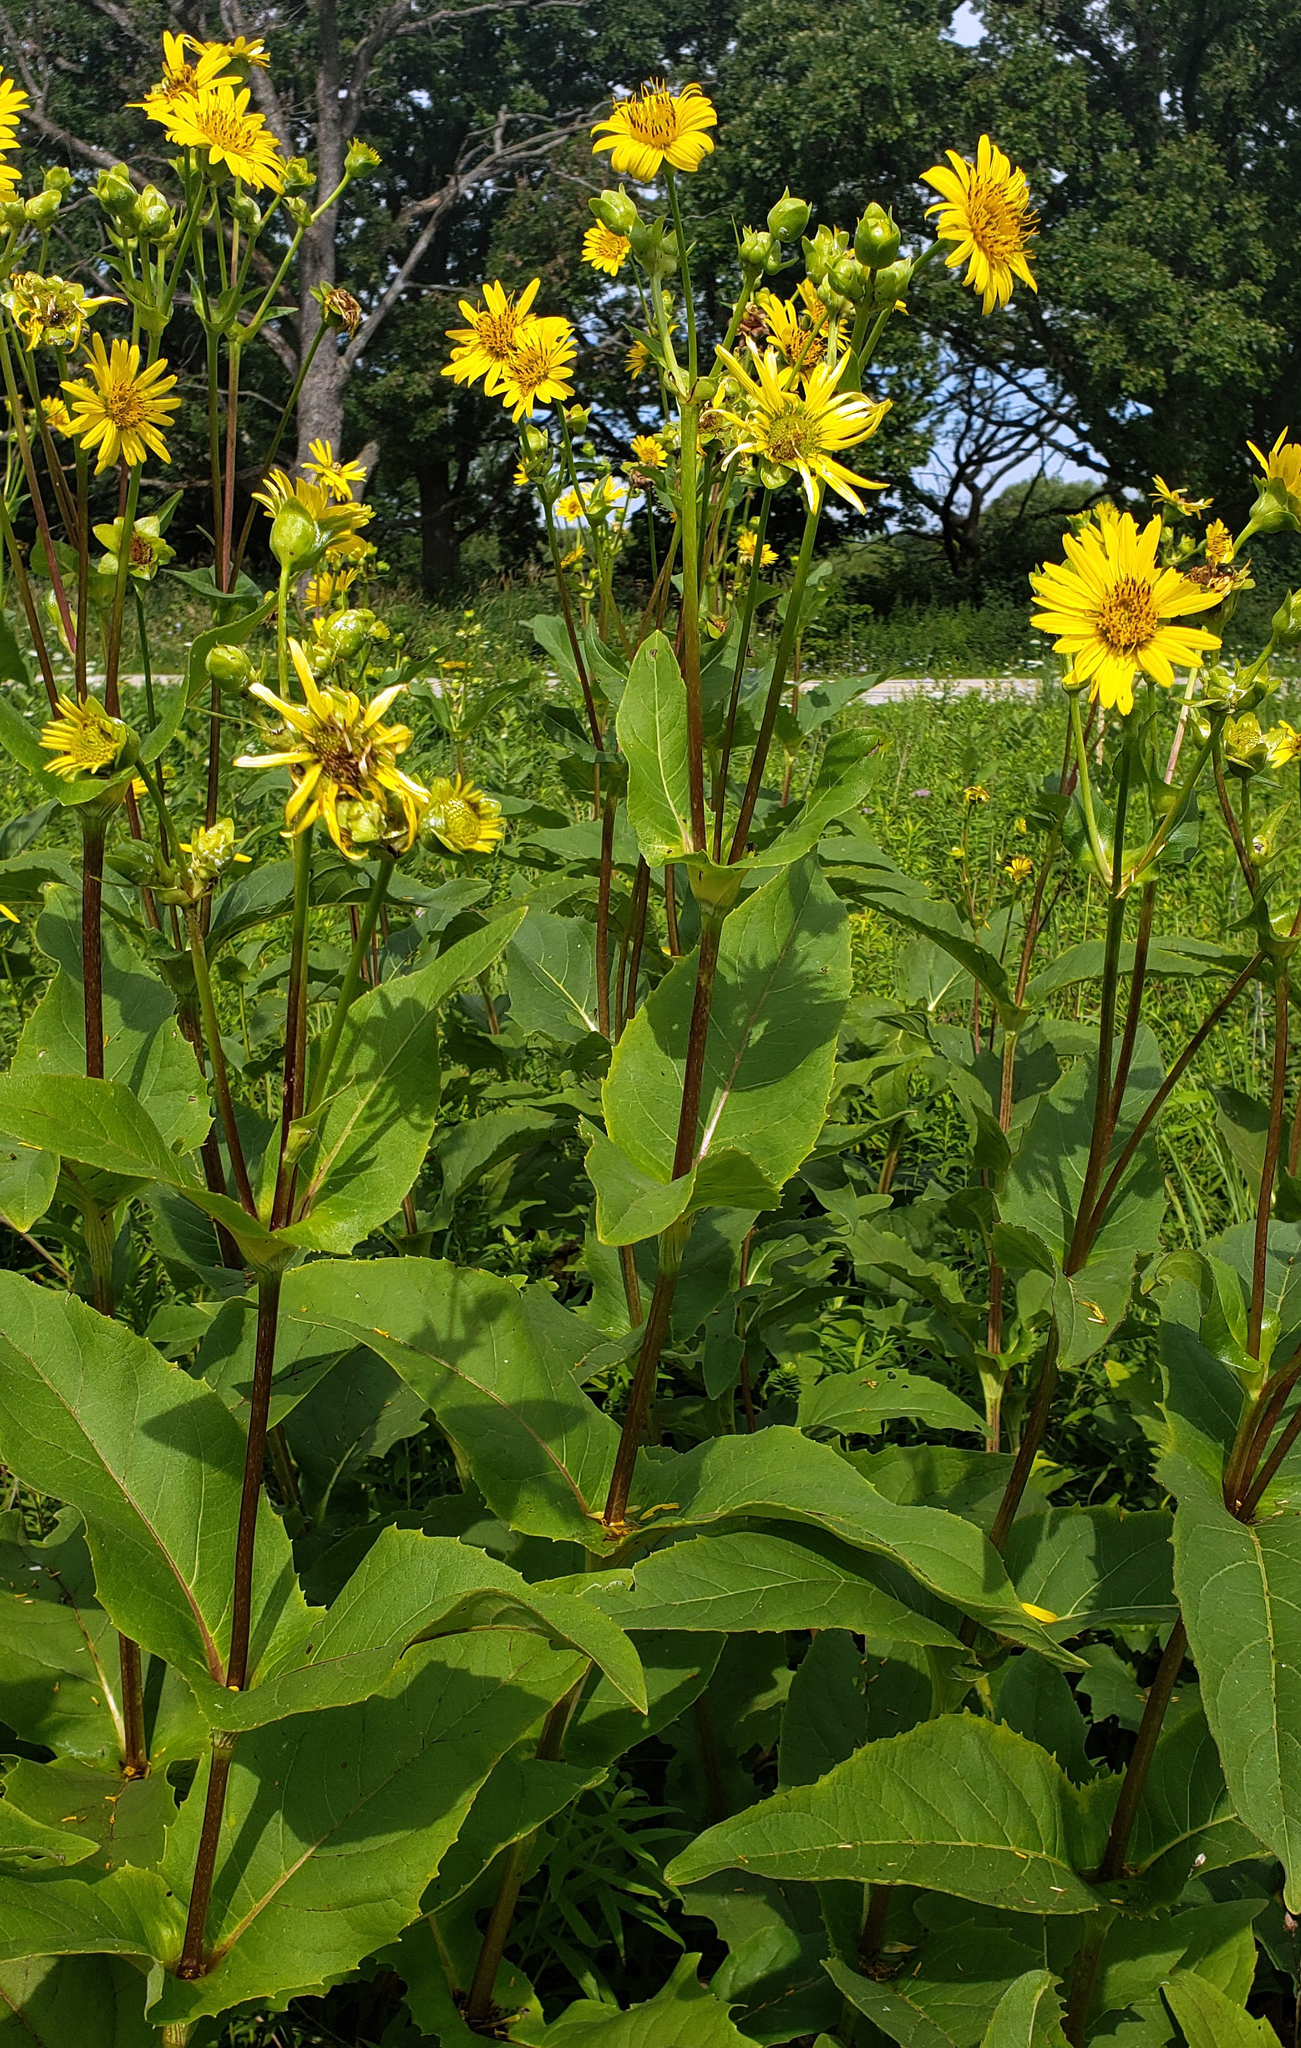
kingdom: Plantae
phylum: Tracheophyta
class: Magnoliopsida
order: Asterales
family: Asteraceae
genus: Silphium
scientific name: Silphium perfoliatum
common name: Cup-plant
